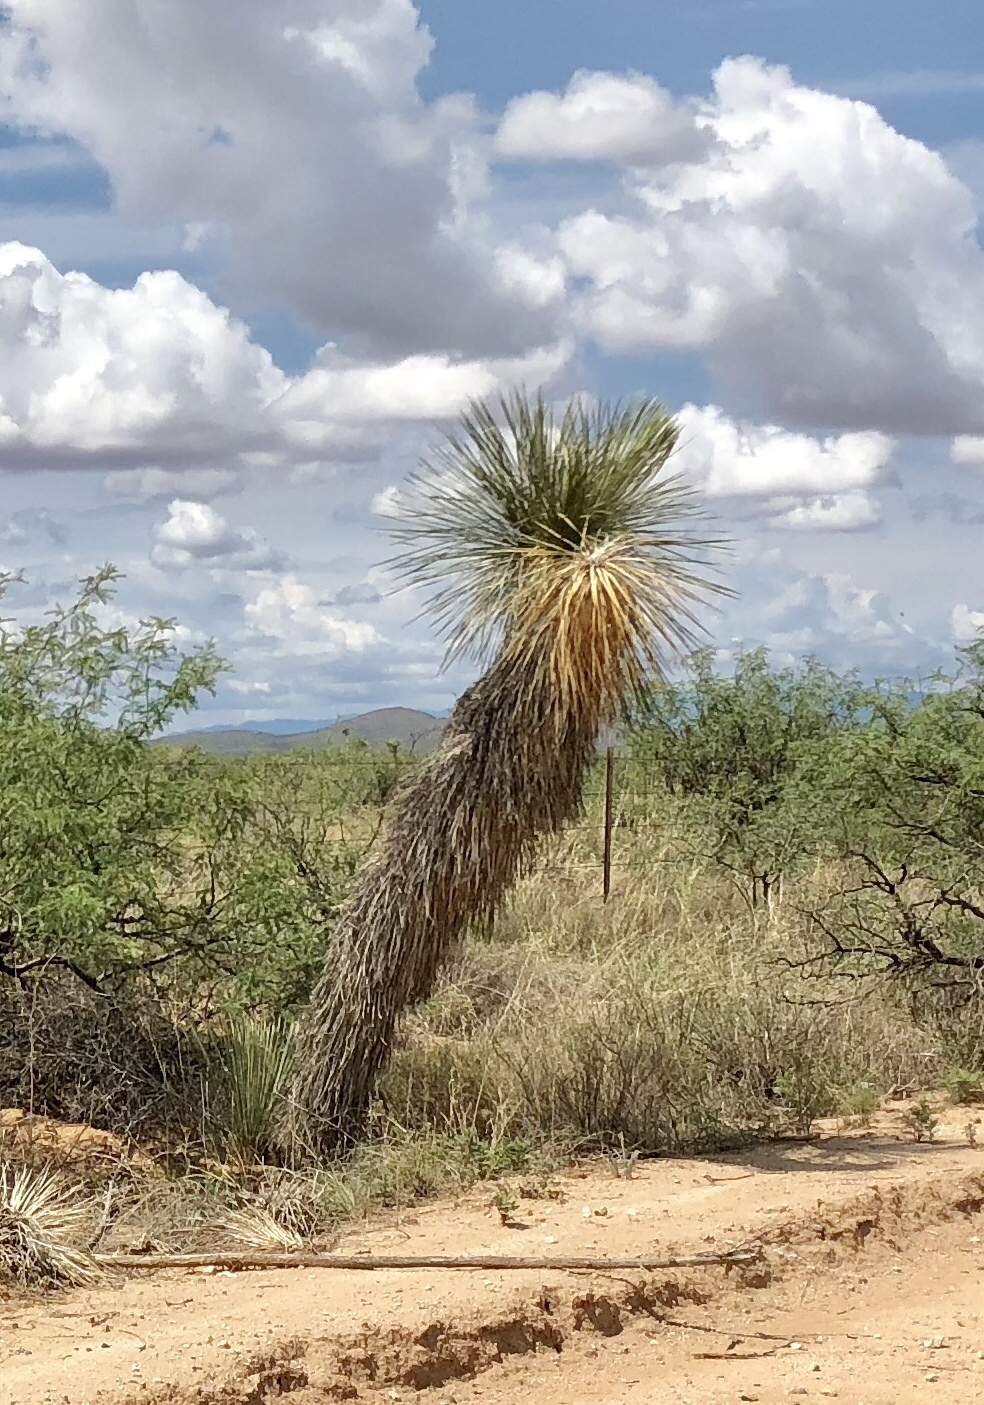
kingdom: Plantae
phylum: Tracheophyta
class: Liliopsida
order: Asparagales
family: Asparagaceae
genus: Yucca
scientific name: Yucca elata
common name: Palmella
